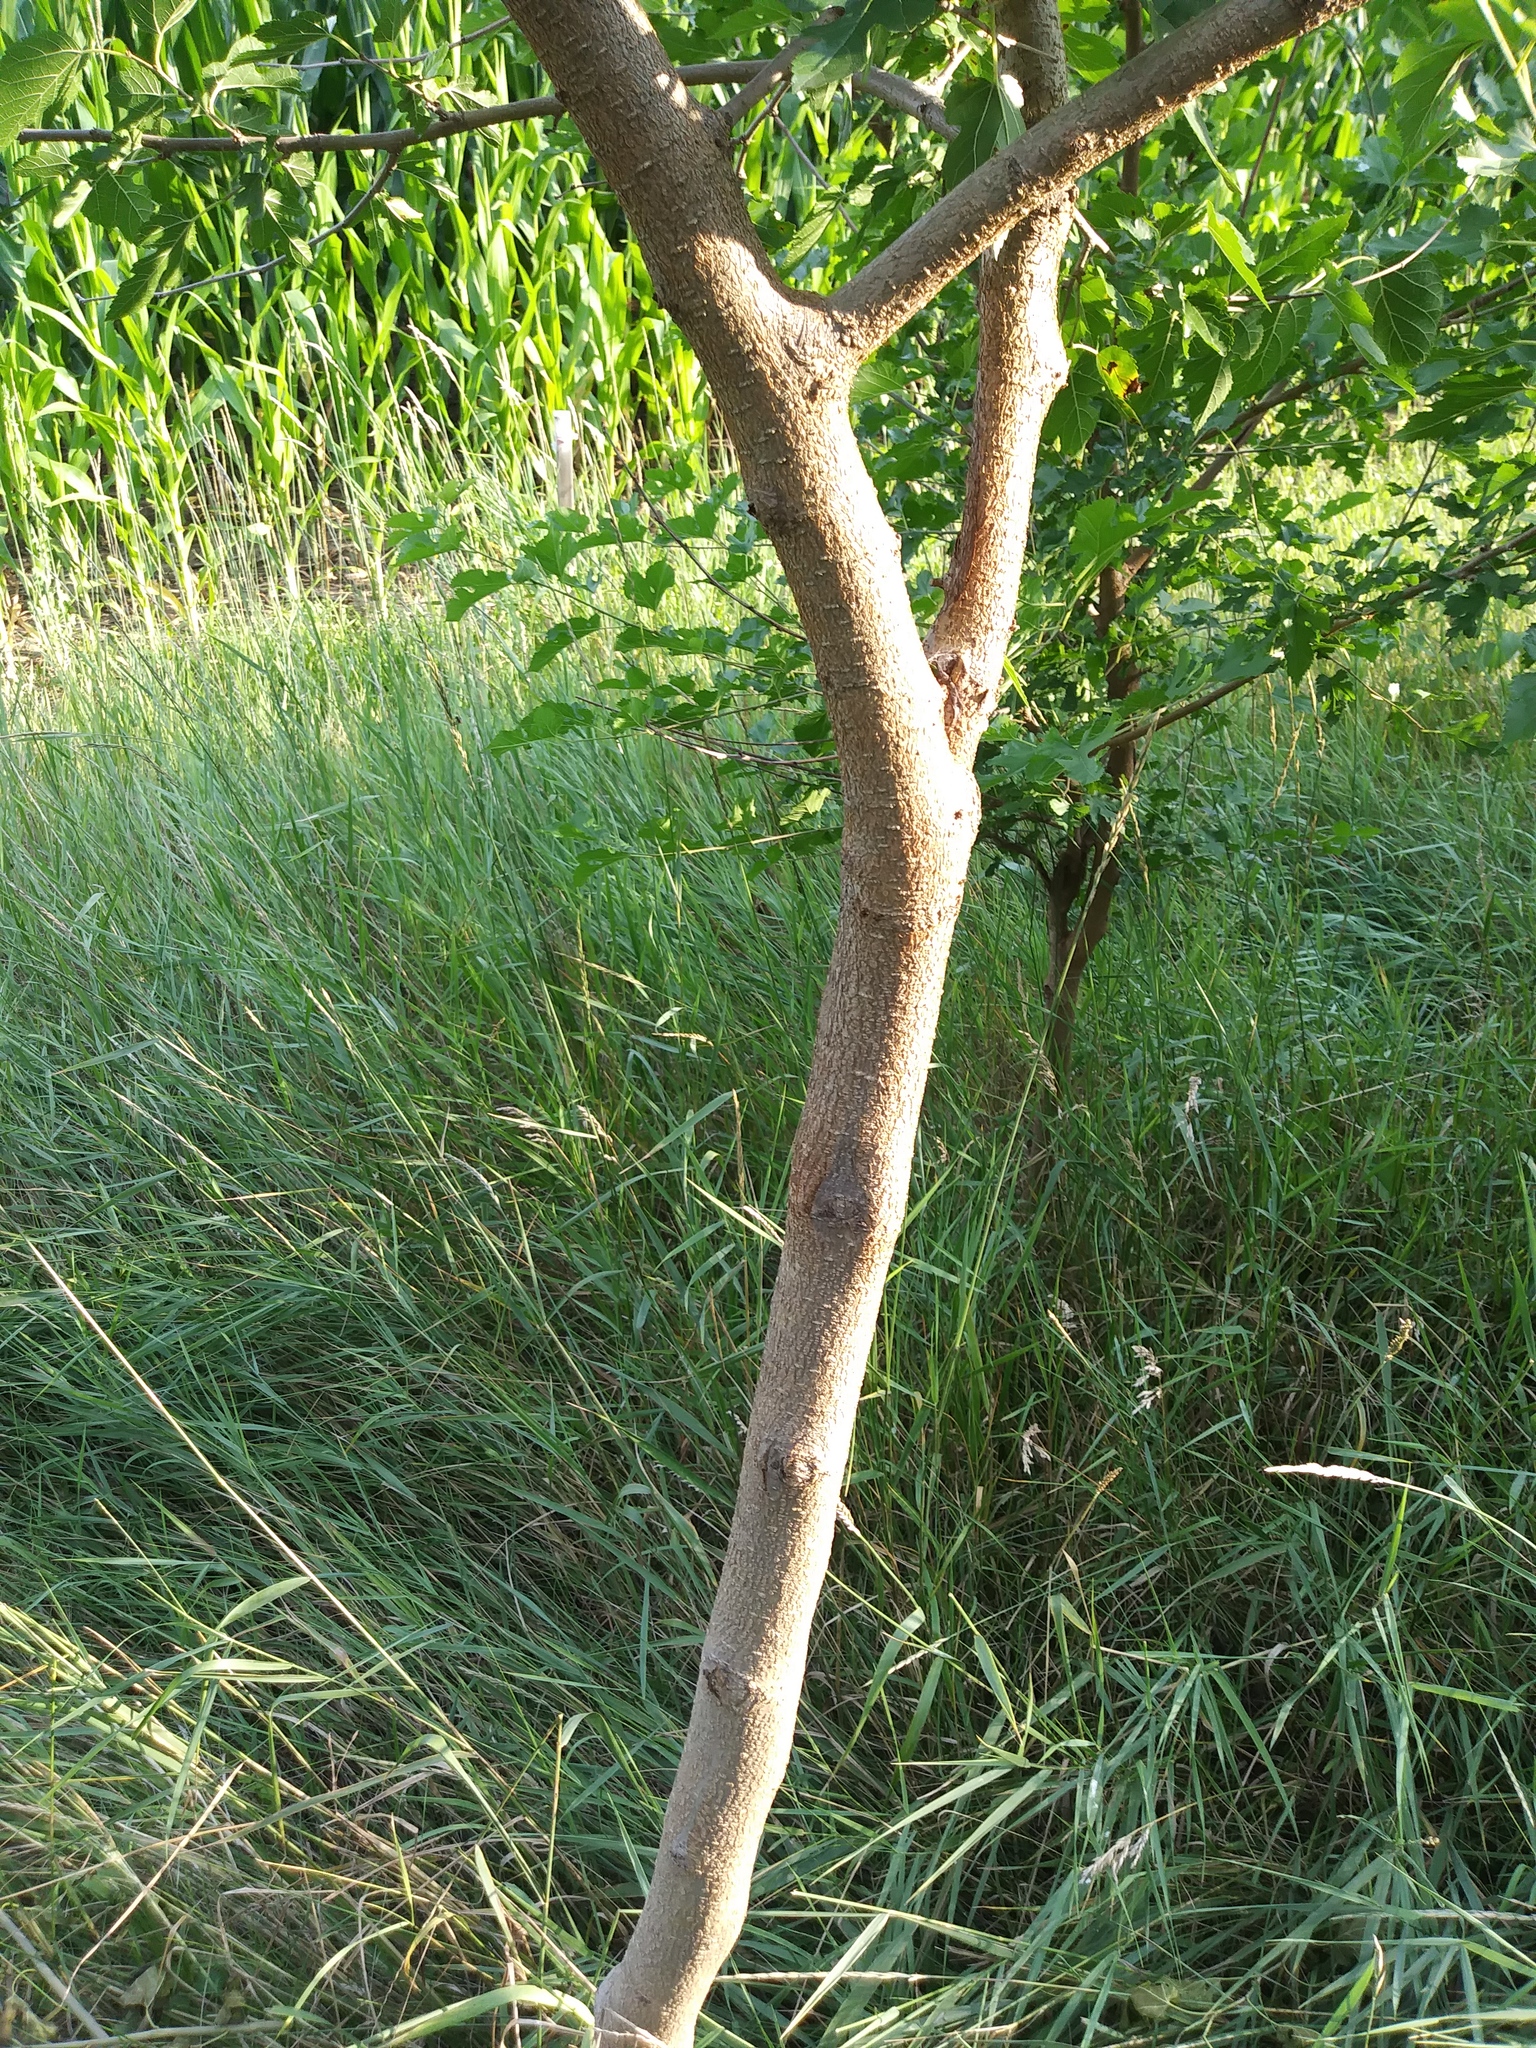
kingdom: Plantae
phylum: Tracheophyta
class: Magnoliopsida
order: Rosales
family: Moraceae
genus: Morus
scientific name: Morus alba
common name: White mulberry
